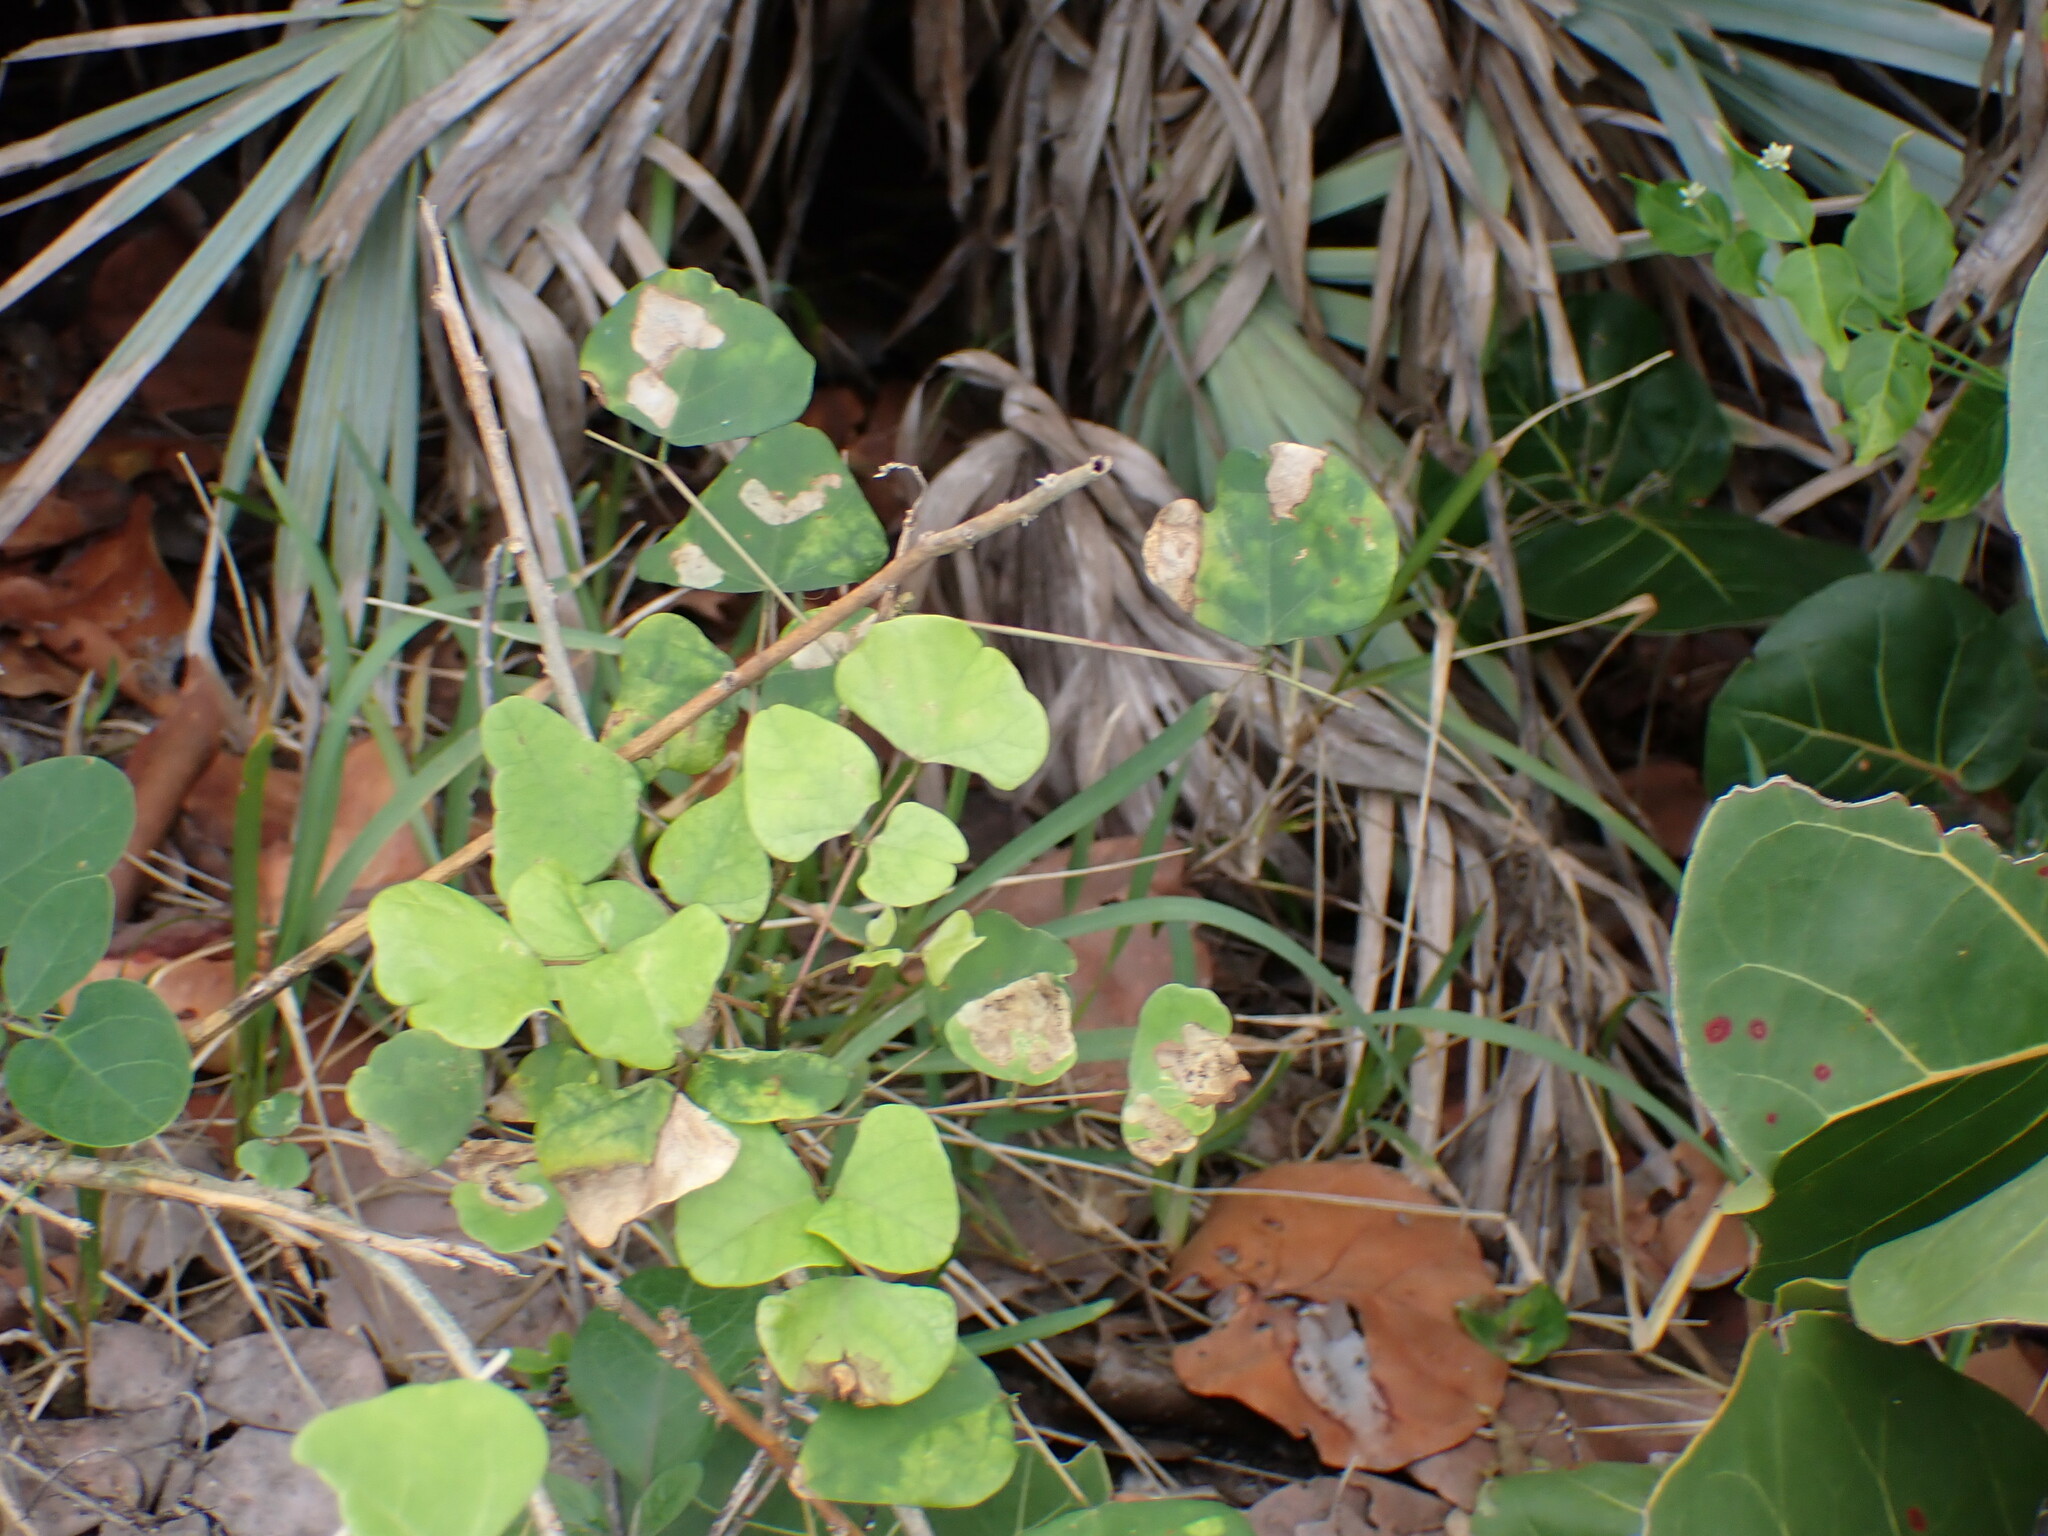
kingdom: Plantae
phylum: Tracheophyta
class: Magnoliopsida
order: Fabales
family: Fabaceae
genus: Canavalia
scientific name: Canavalia rosea
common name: Beach-bean
